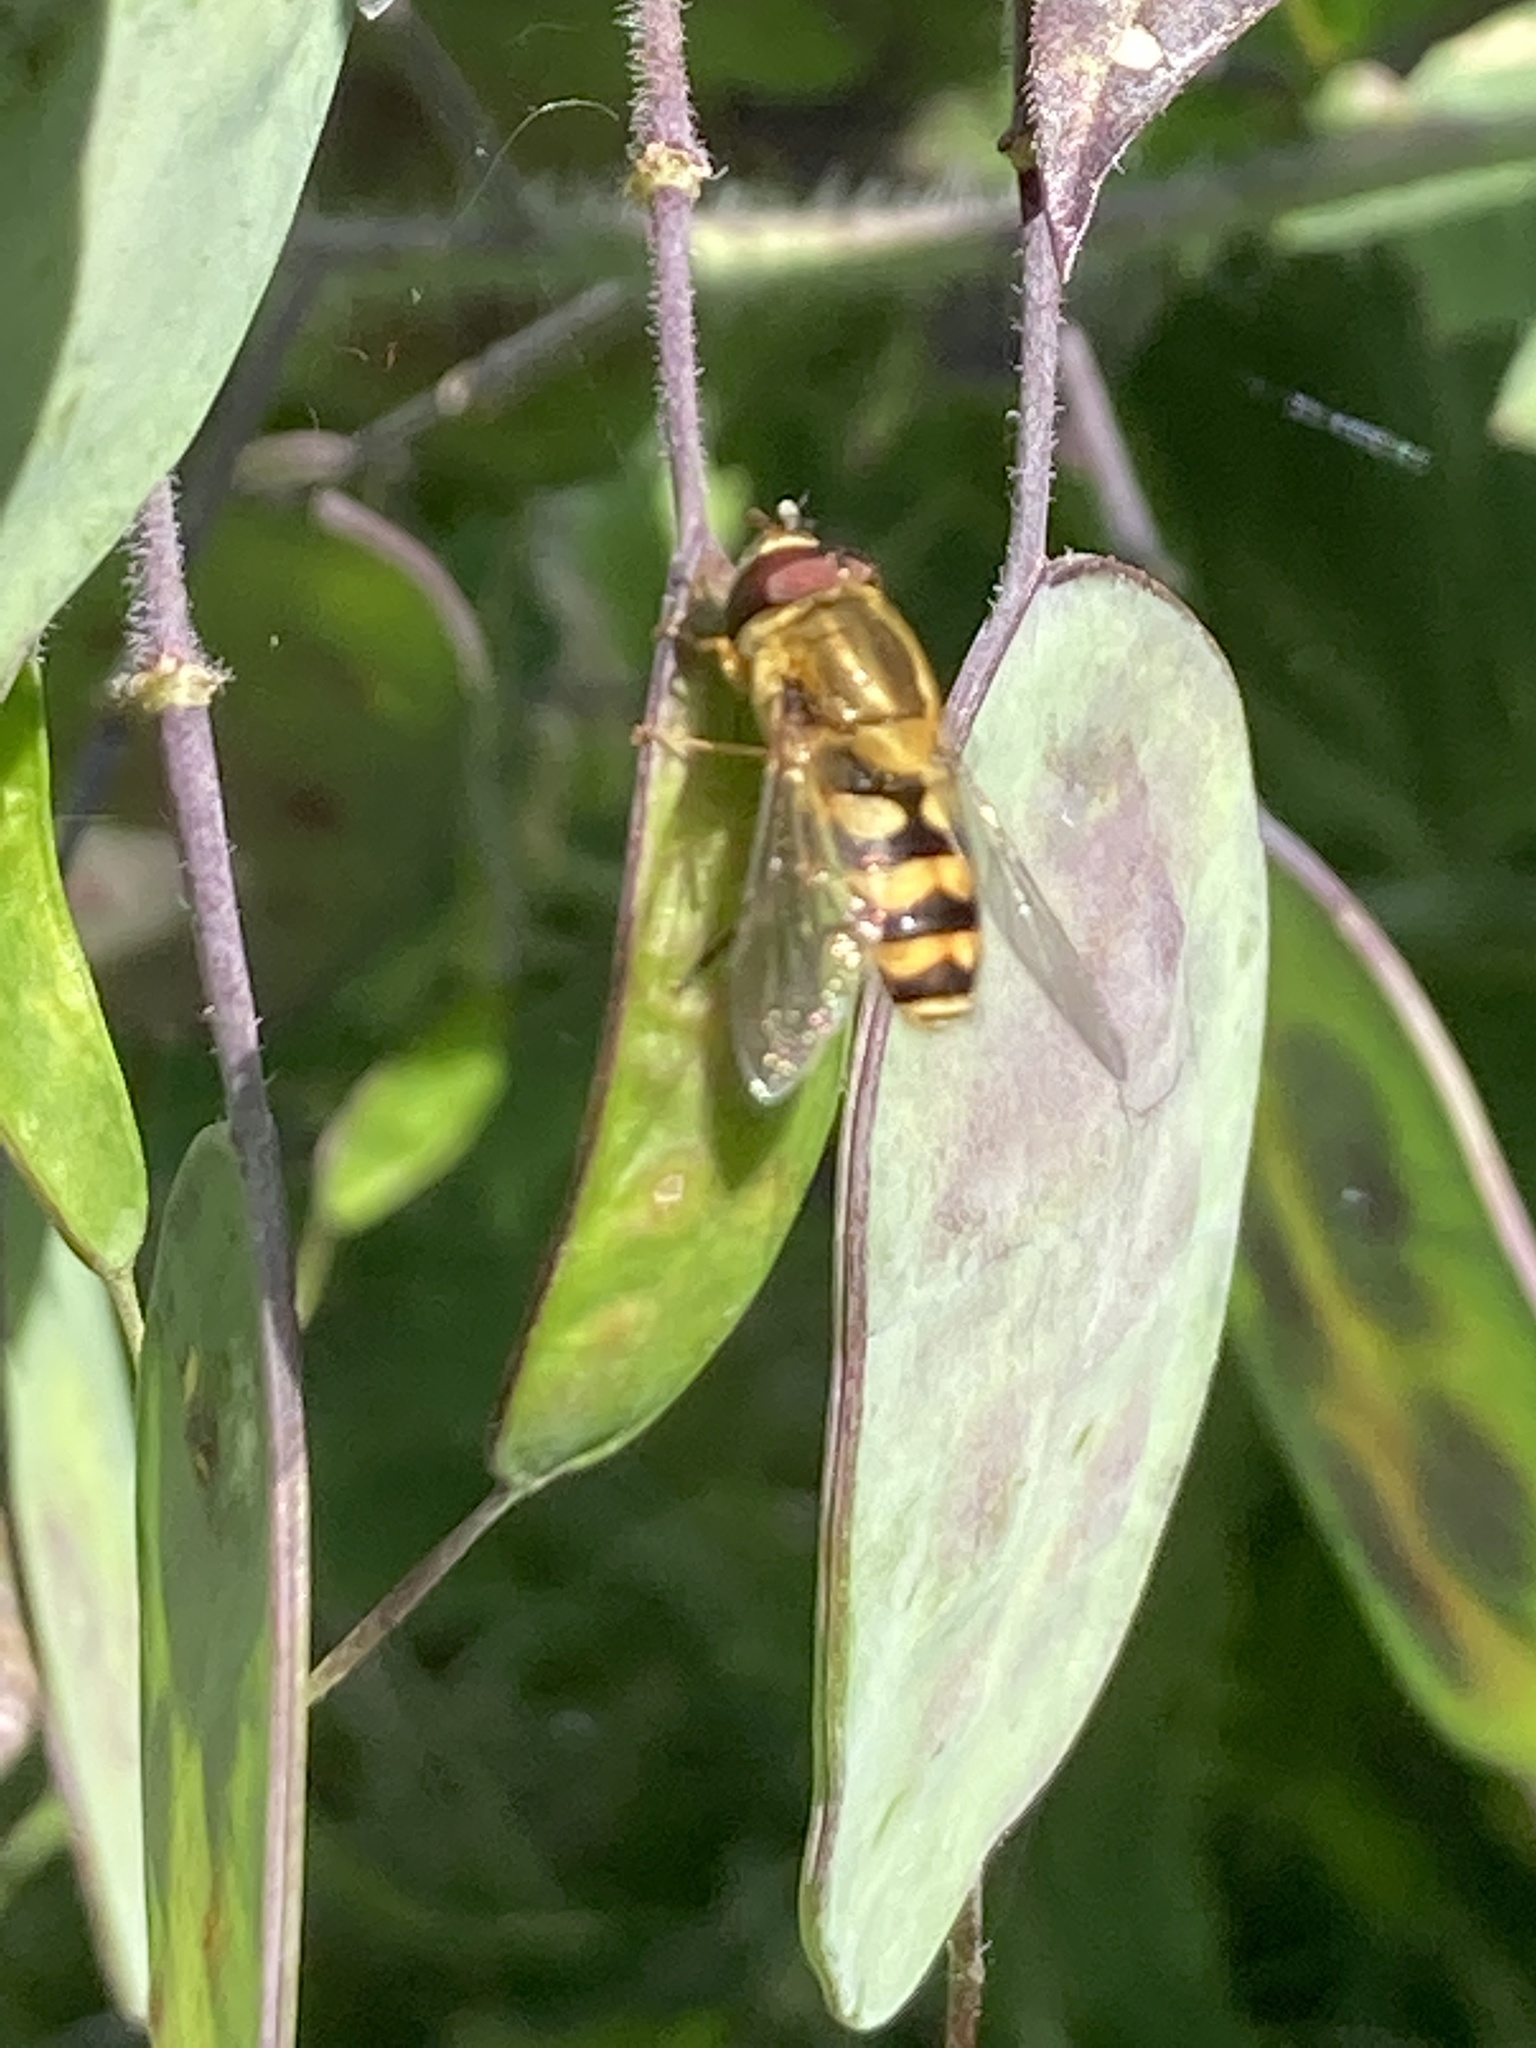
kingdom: Animalia
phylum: Arthropoda
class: Insecta
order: Diptera
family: Syrphidae
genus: Syrphus
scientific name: Syrphus
